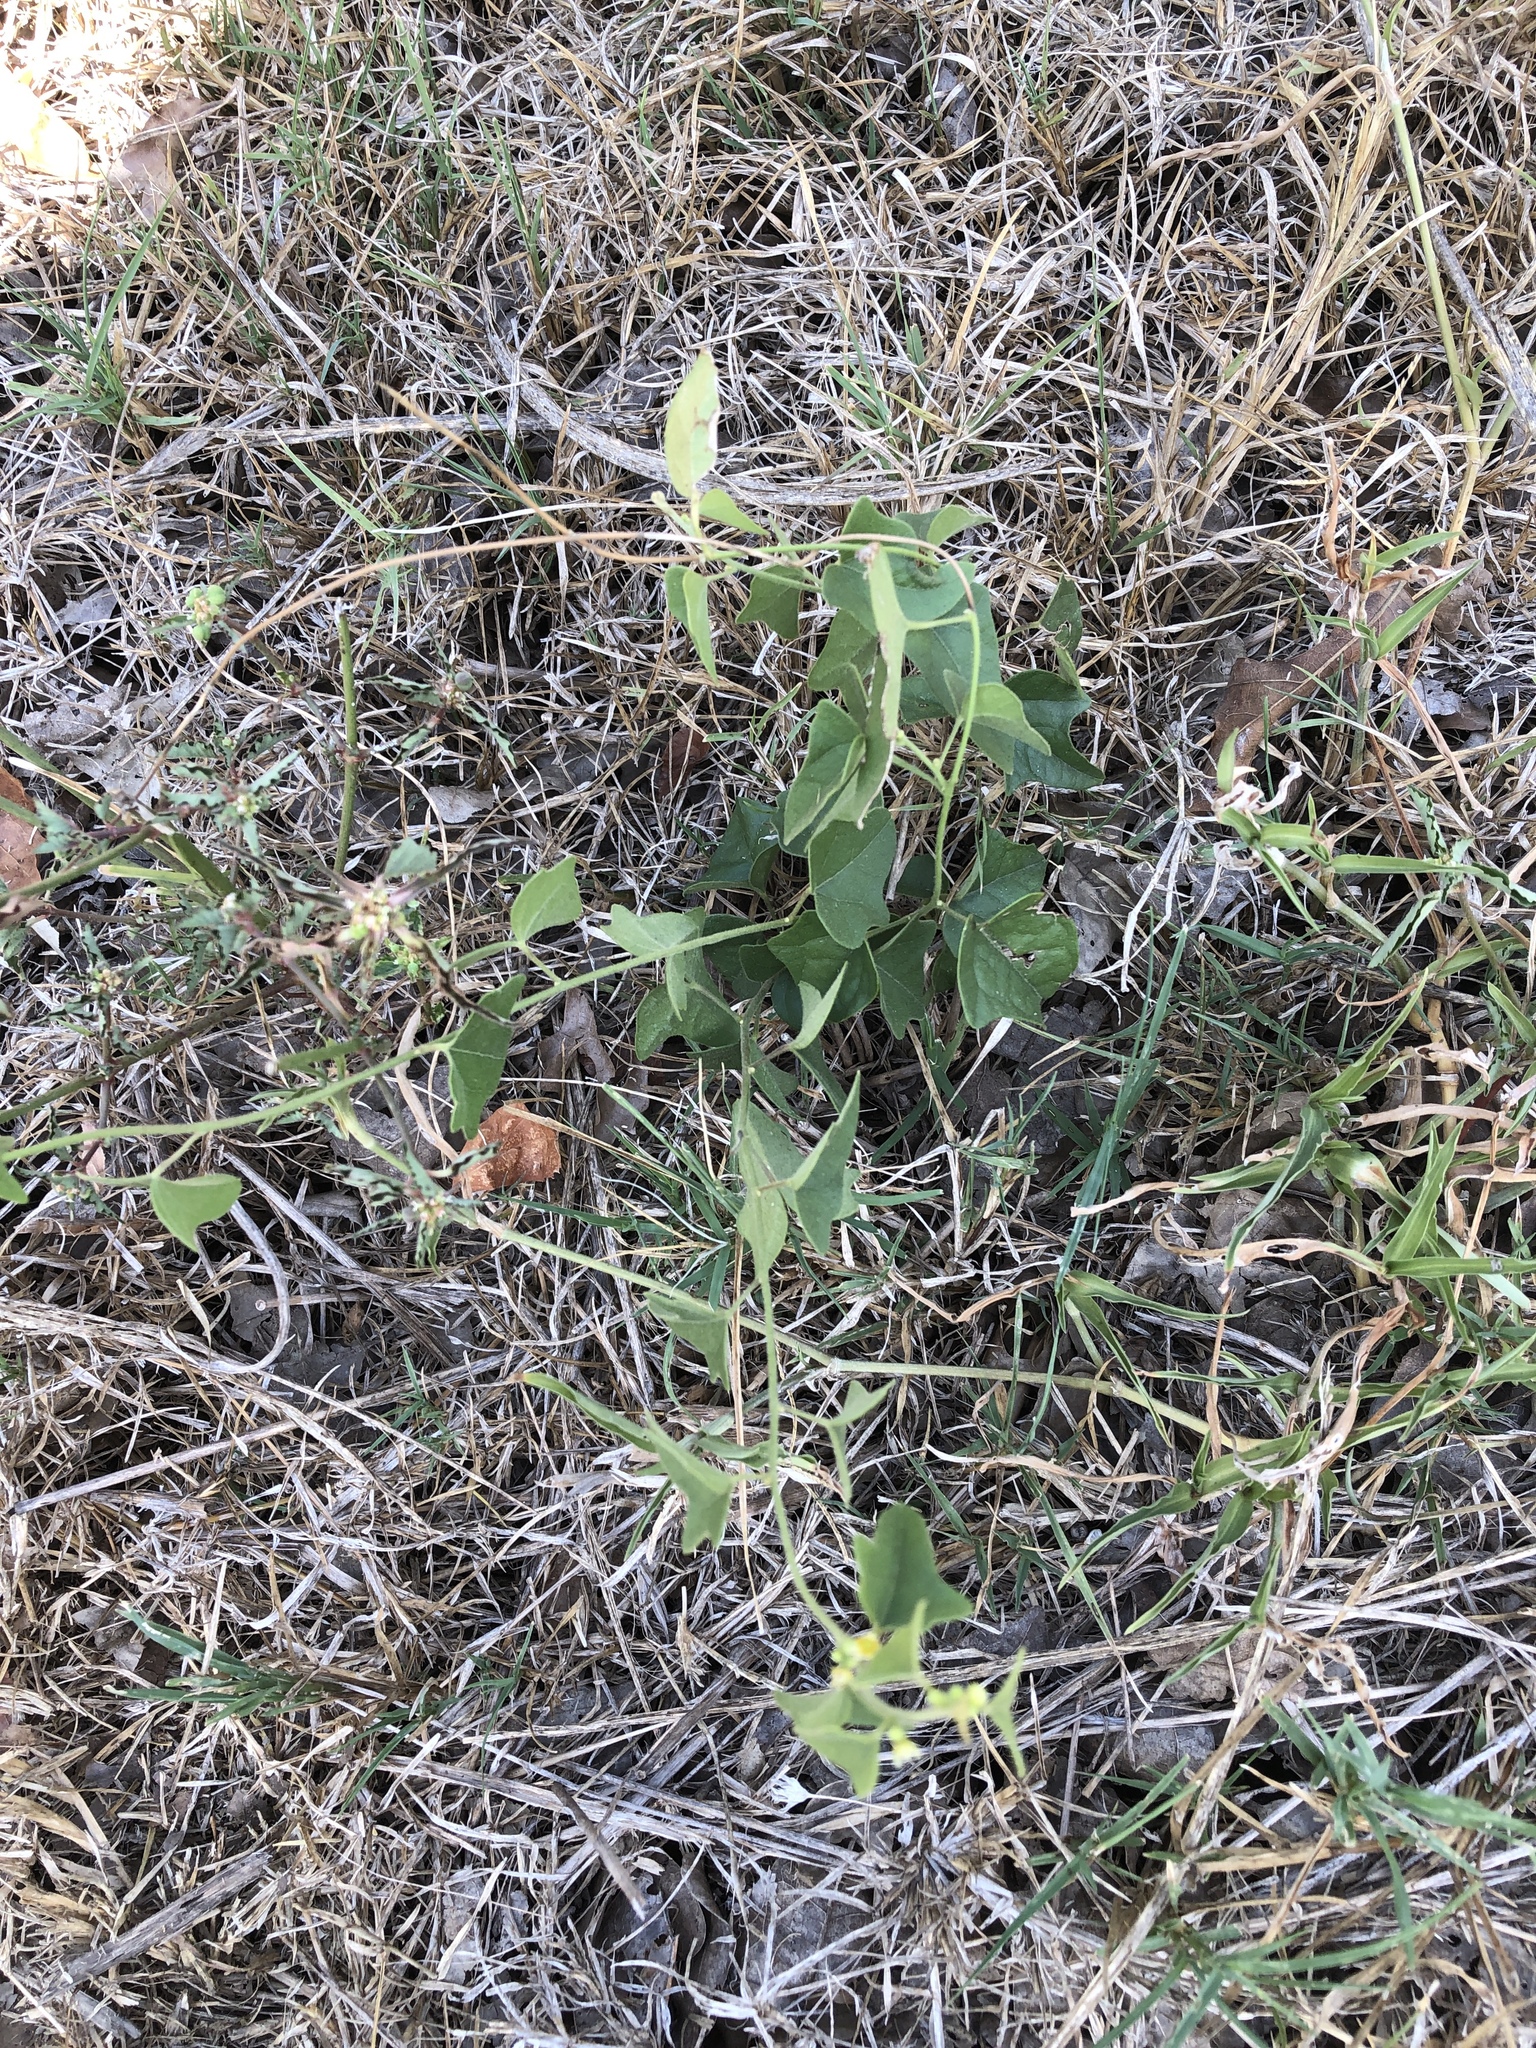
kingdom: Plantae
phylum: Tracheophyta
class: Magnoliopsida
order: Ranunculales
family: Menispermaceae
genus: Cocculus
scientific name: Cocculus carolinus
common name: Carolina moonseed
